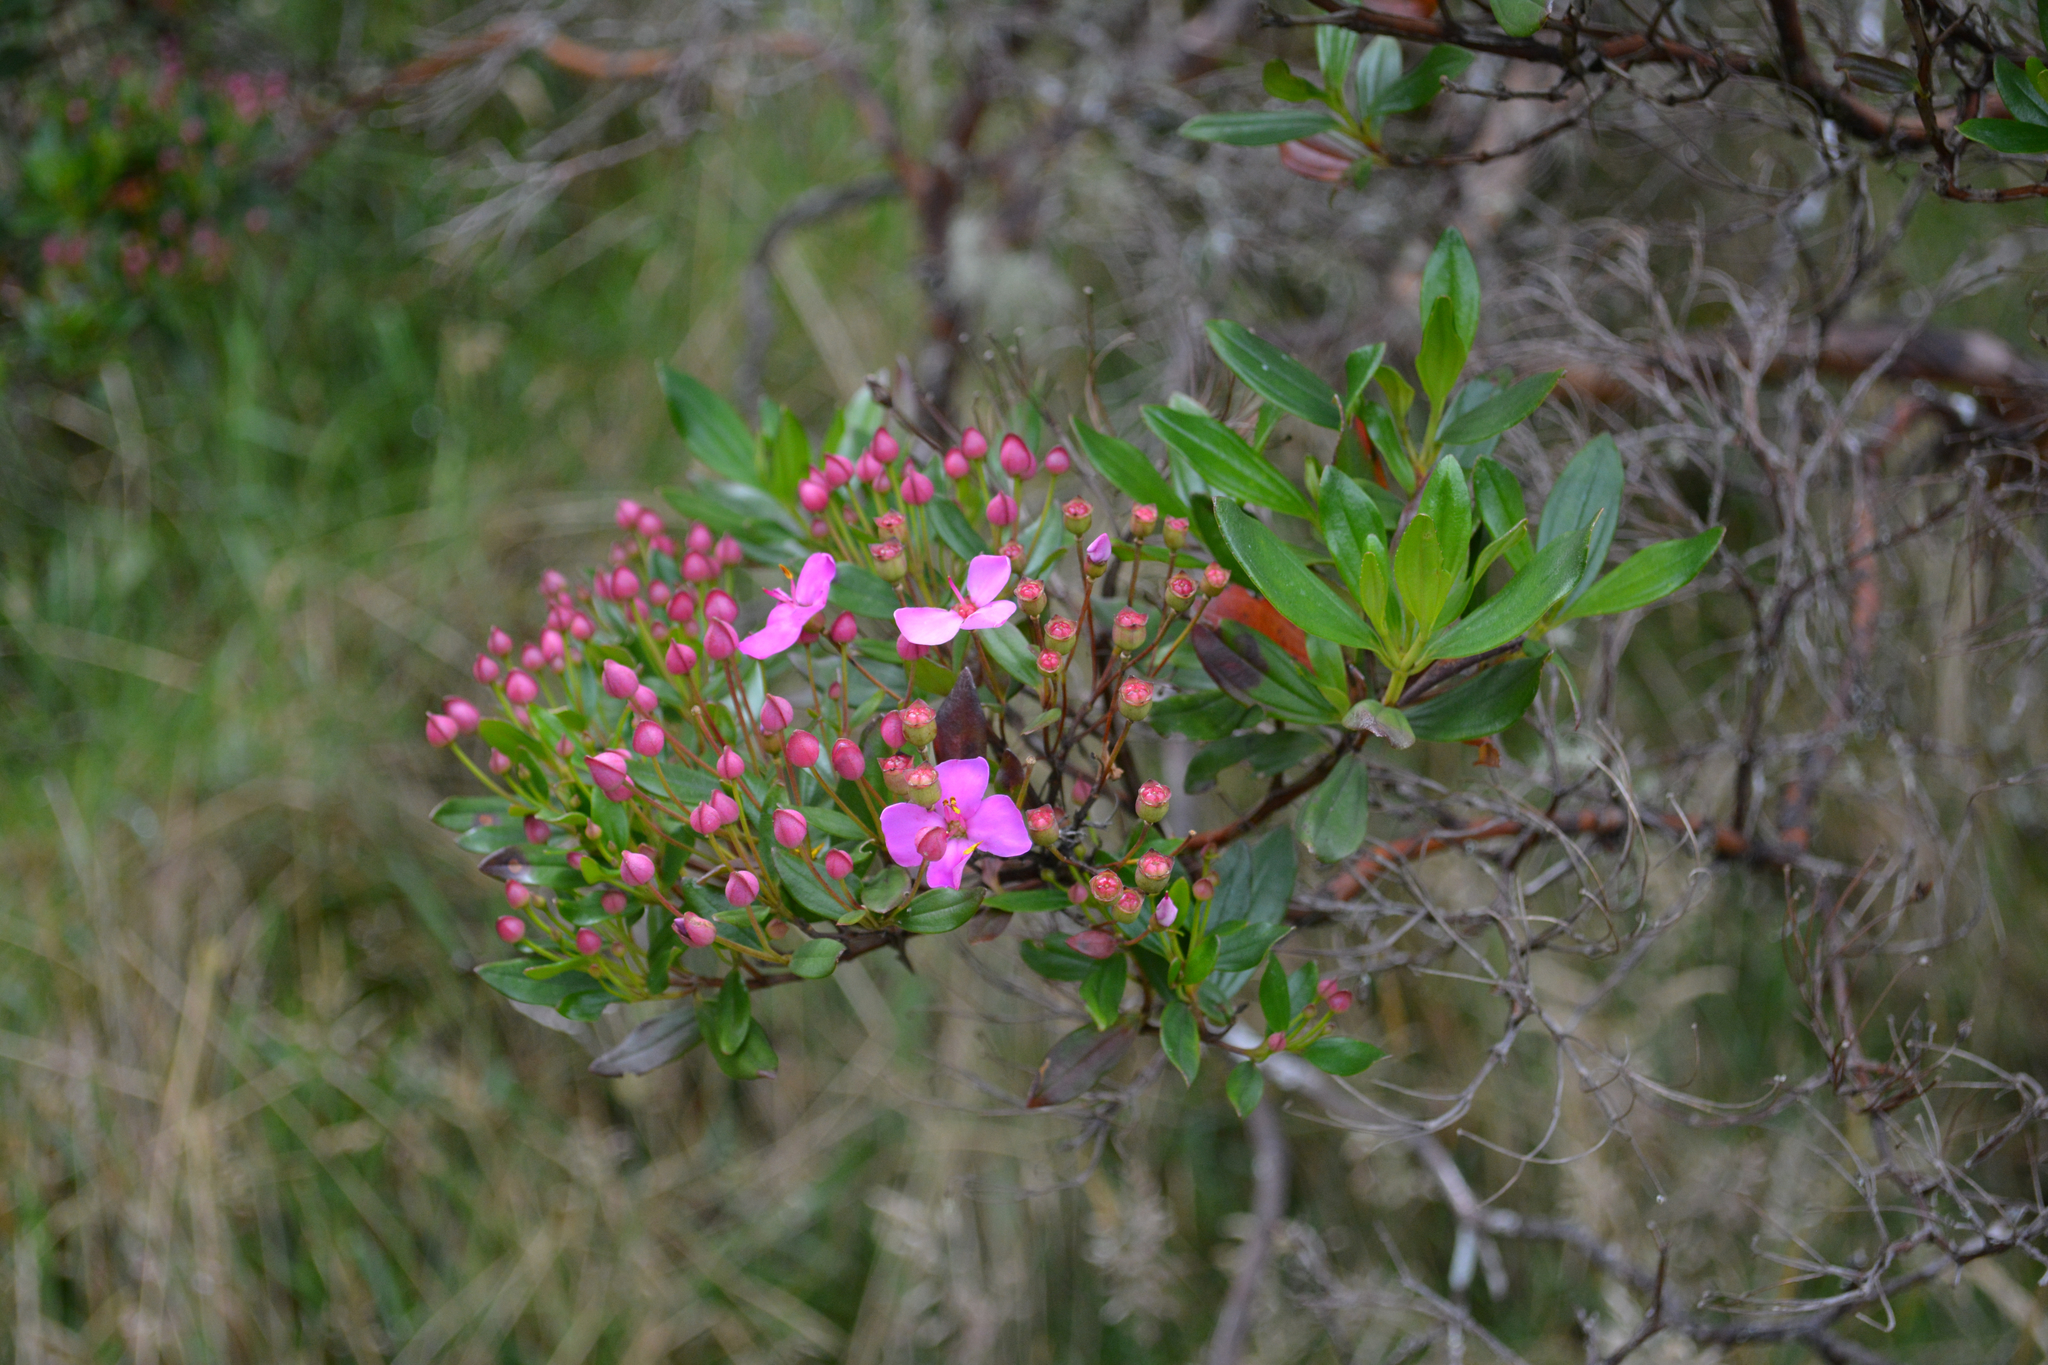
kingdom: Plantae
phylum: Tracheophyta
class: Magnoliopsida
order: Myrtales
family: Melastomataceae
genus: Bucquetia
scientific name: Bucquetia glutinosa
